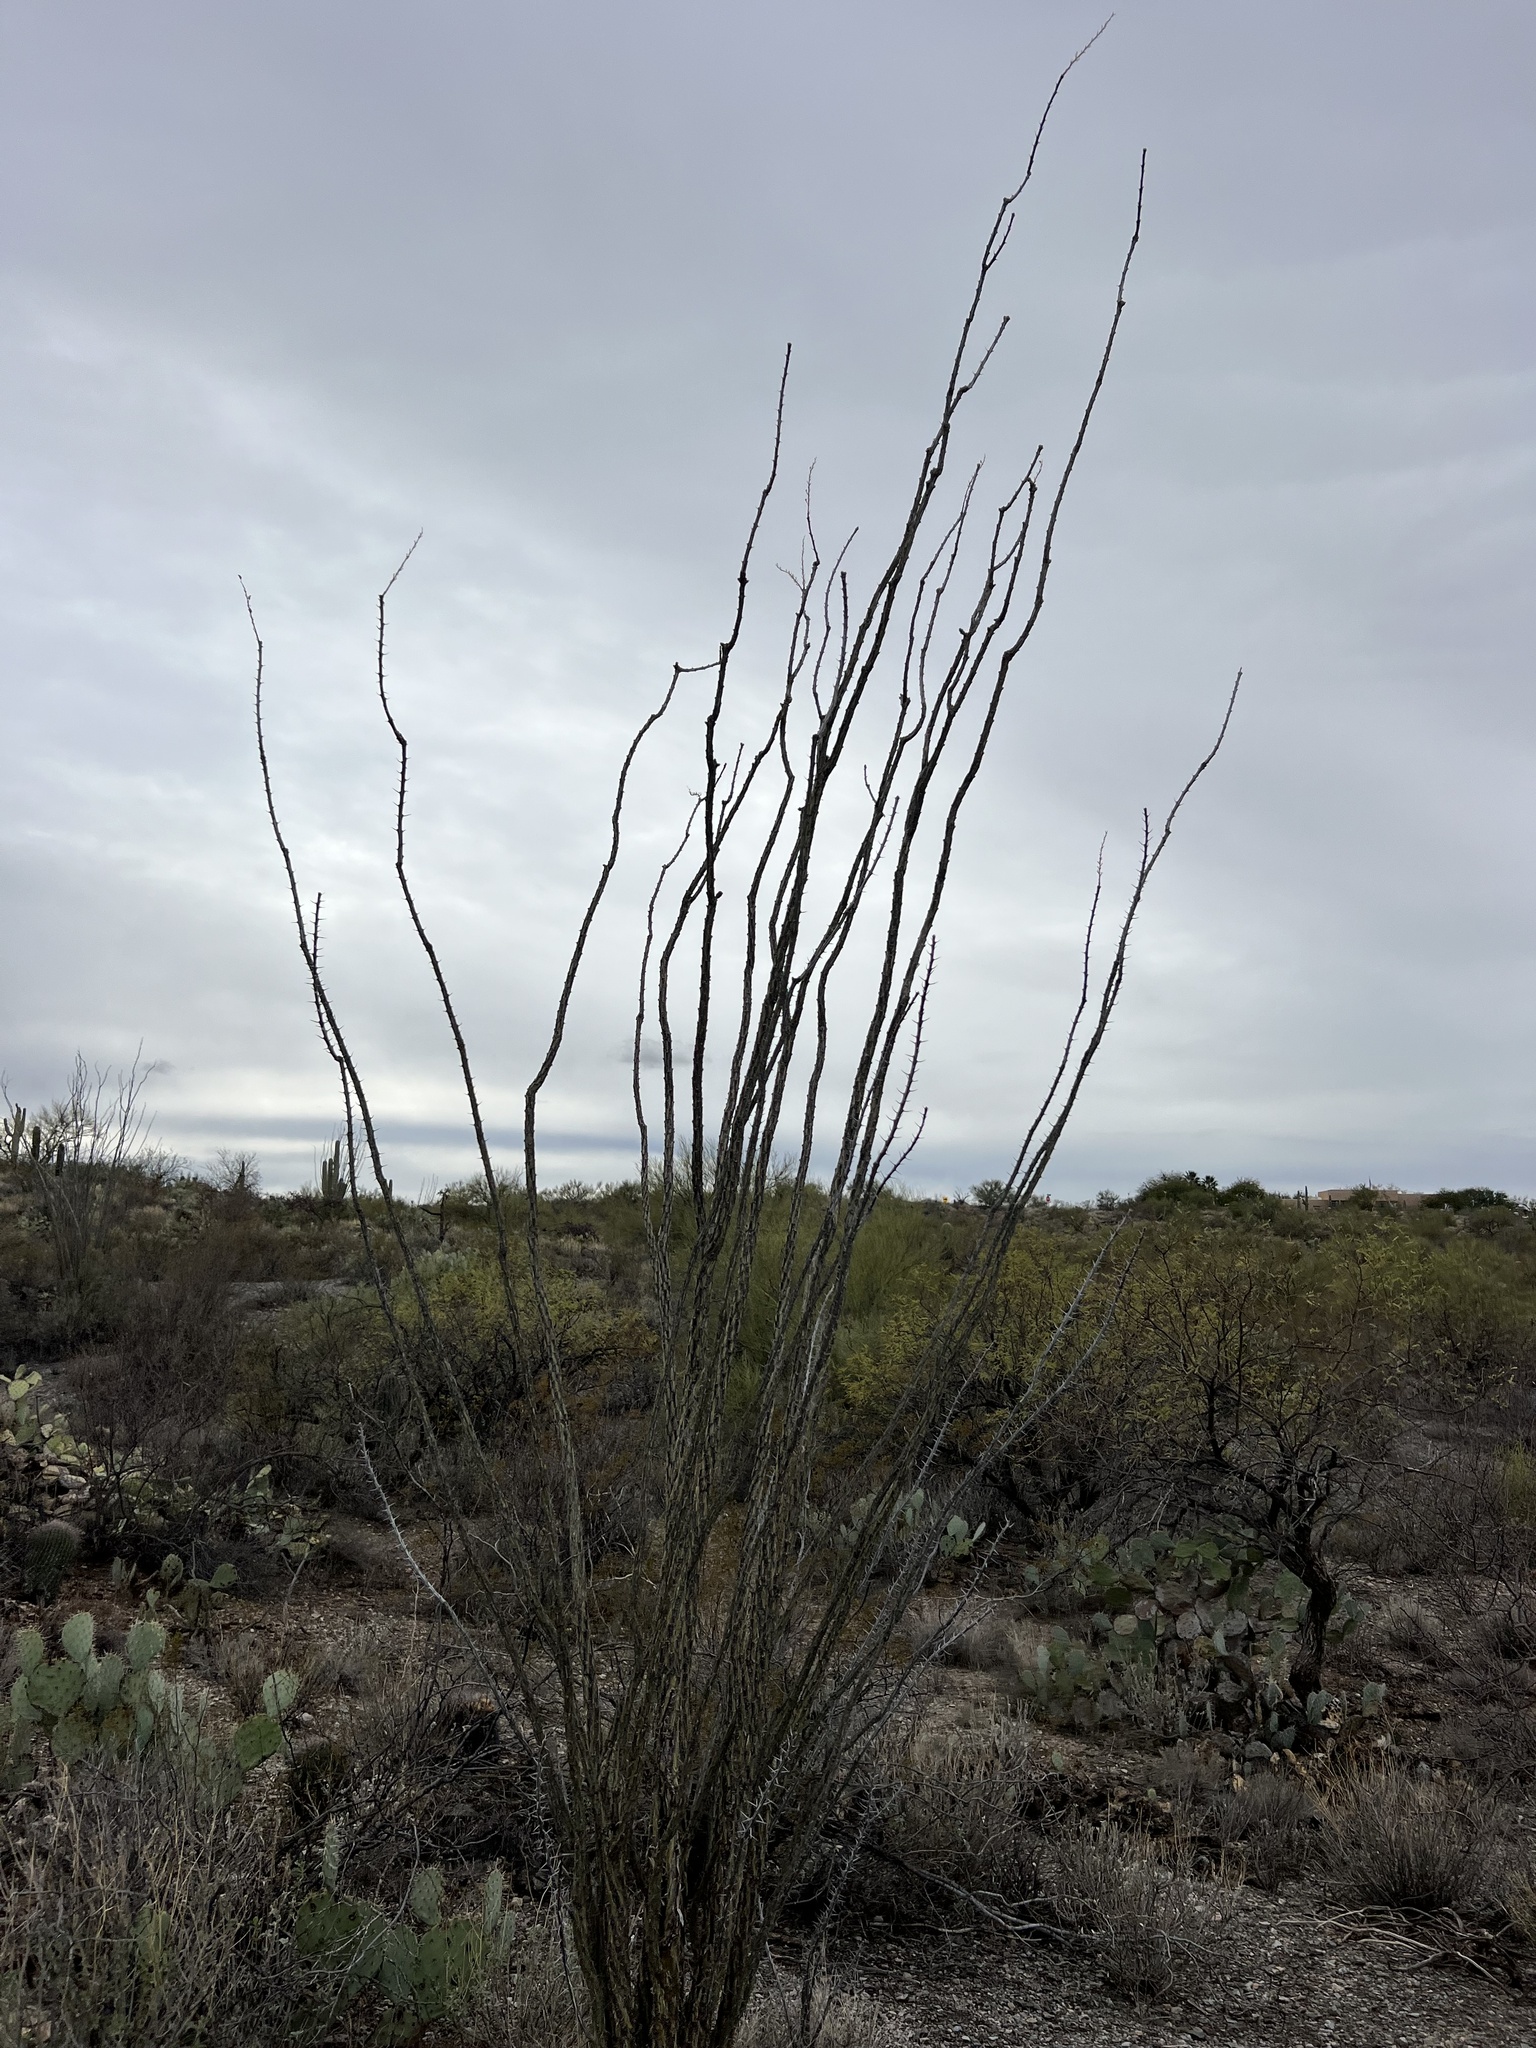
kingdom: Plantae
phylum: Tracheophyta
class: Magnoliopsida
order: Ericales
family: Fouquieriaceae
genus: Fouquieria
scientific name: Fouquieria splendens
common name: Vine-cactus
